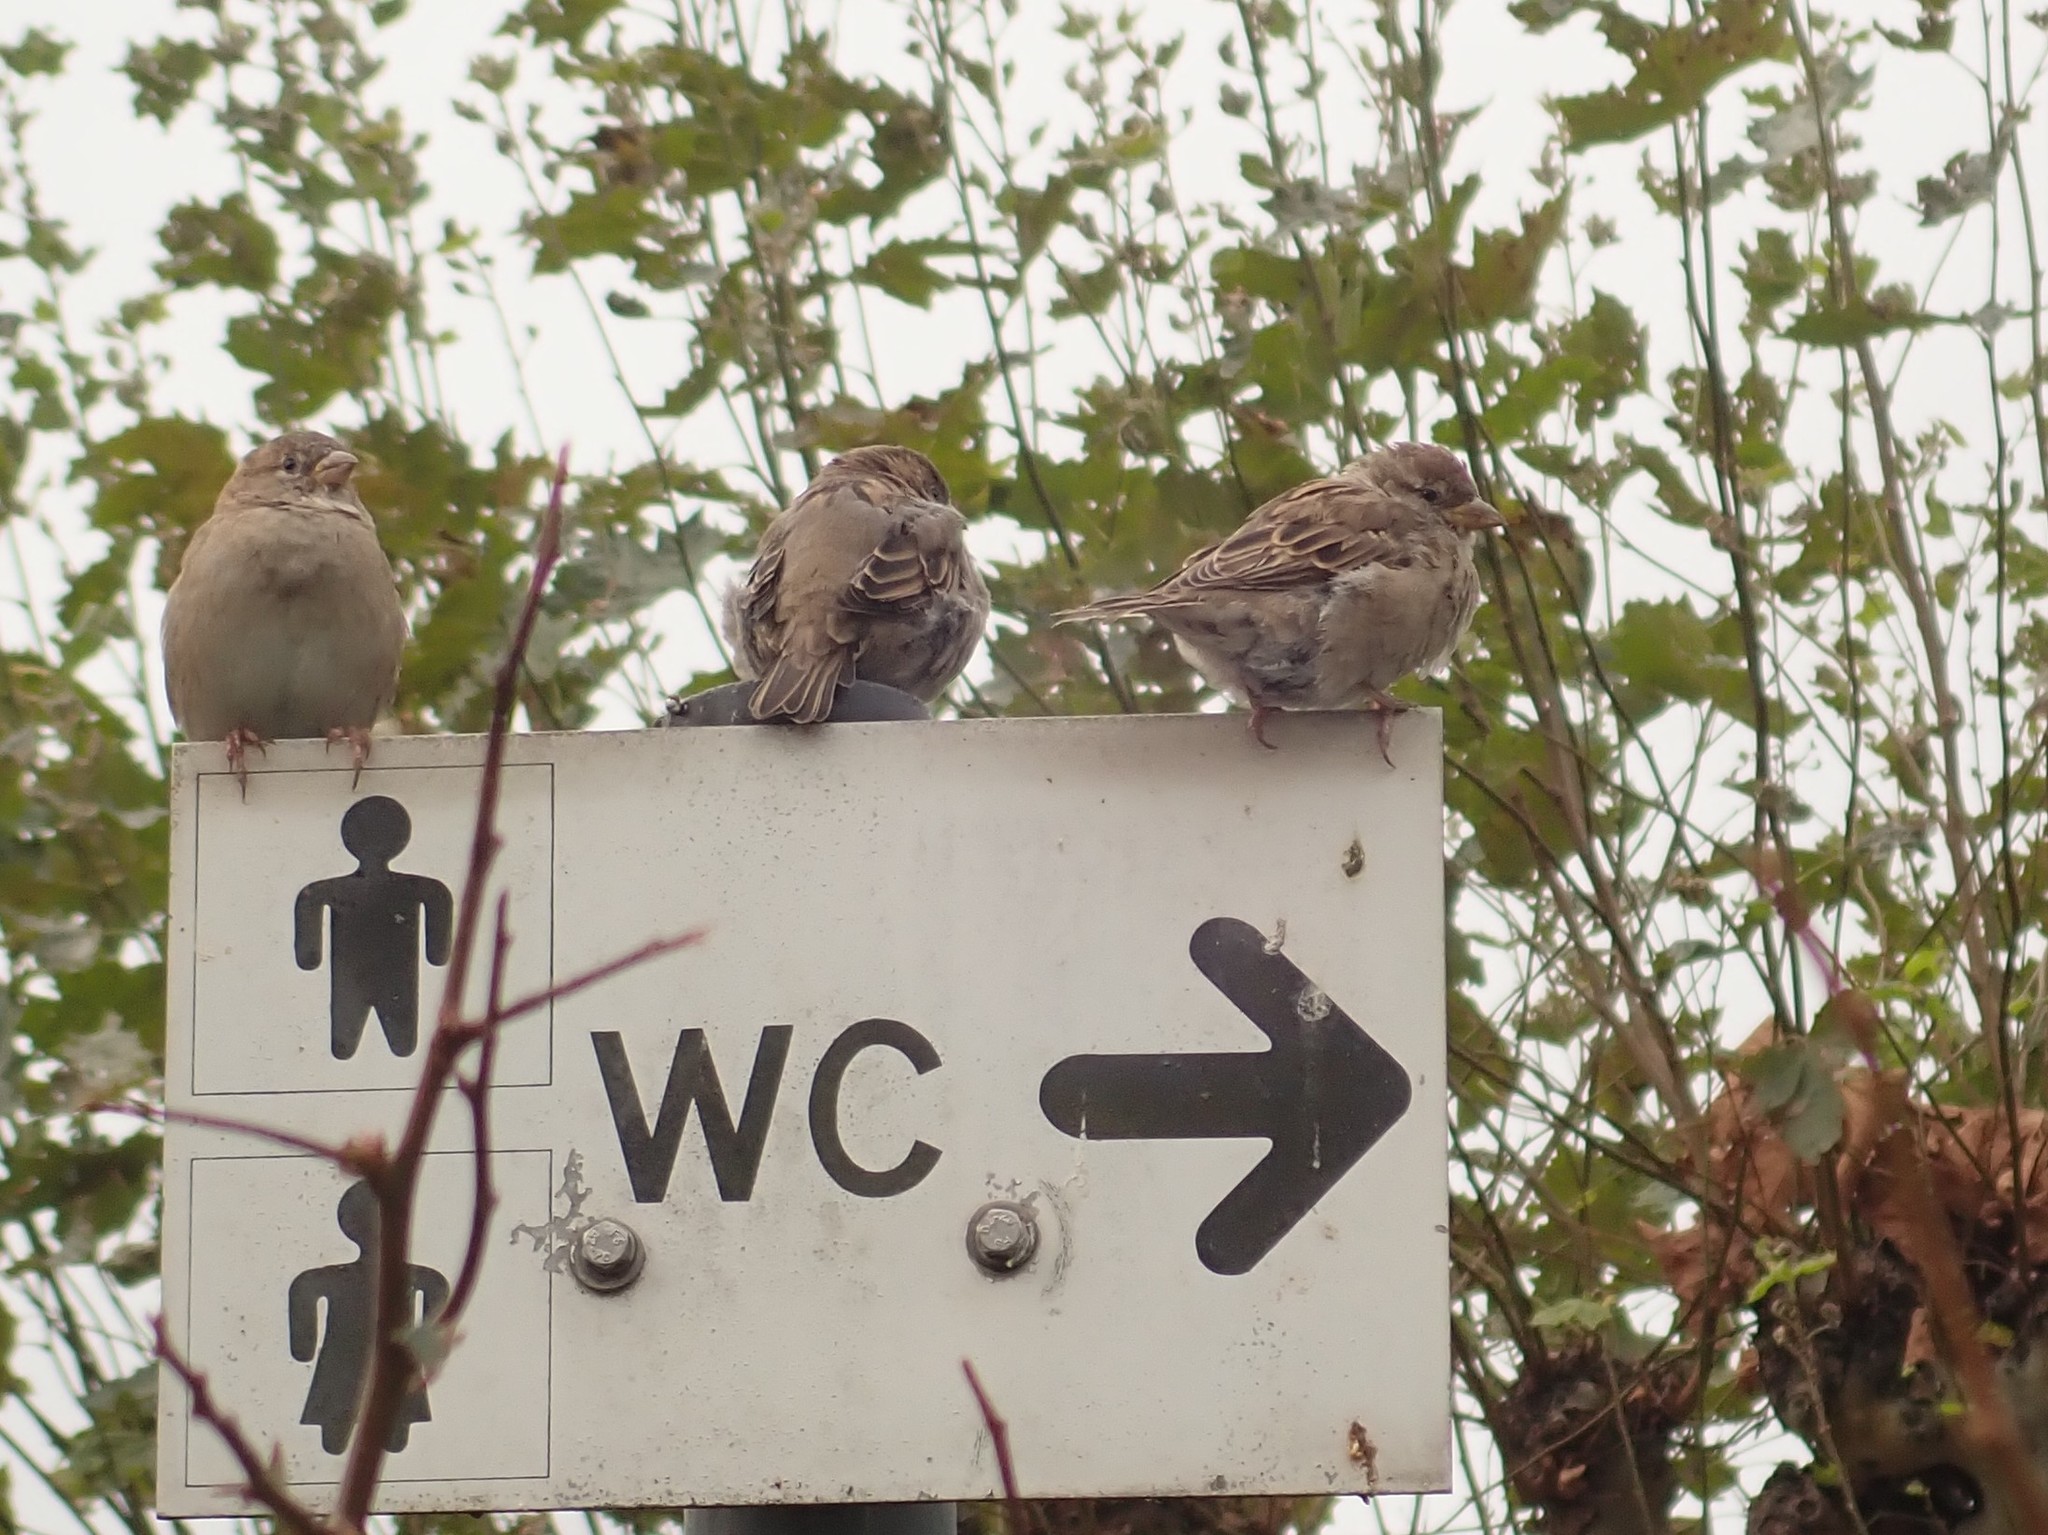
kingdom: Animalia
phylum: Chordata
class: Aves
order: Passeriformes
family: Passeridae
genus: Passer
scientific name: Passer domesticus
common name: House sparrow
